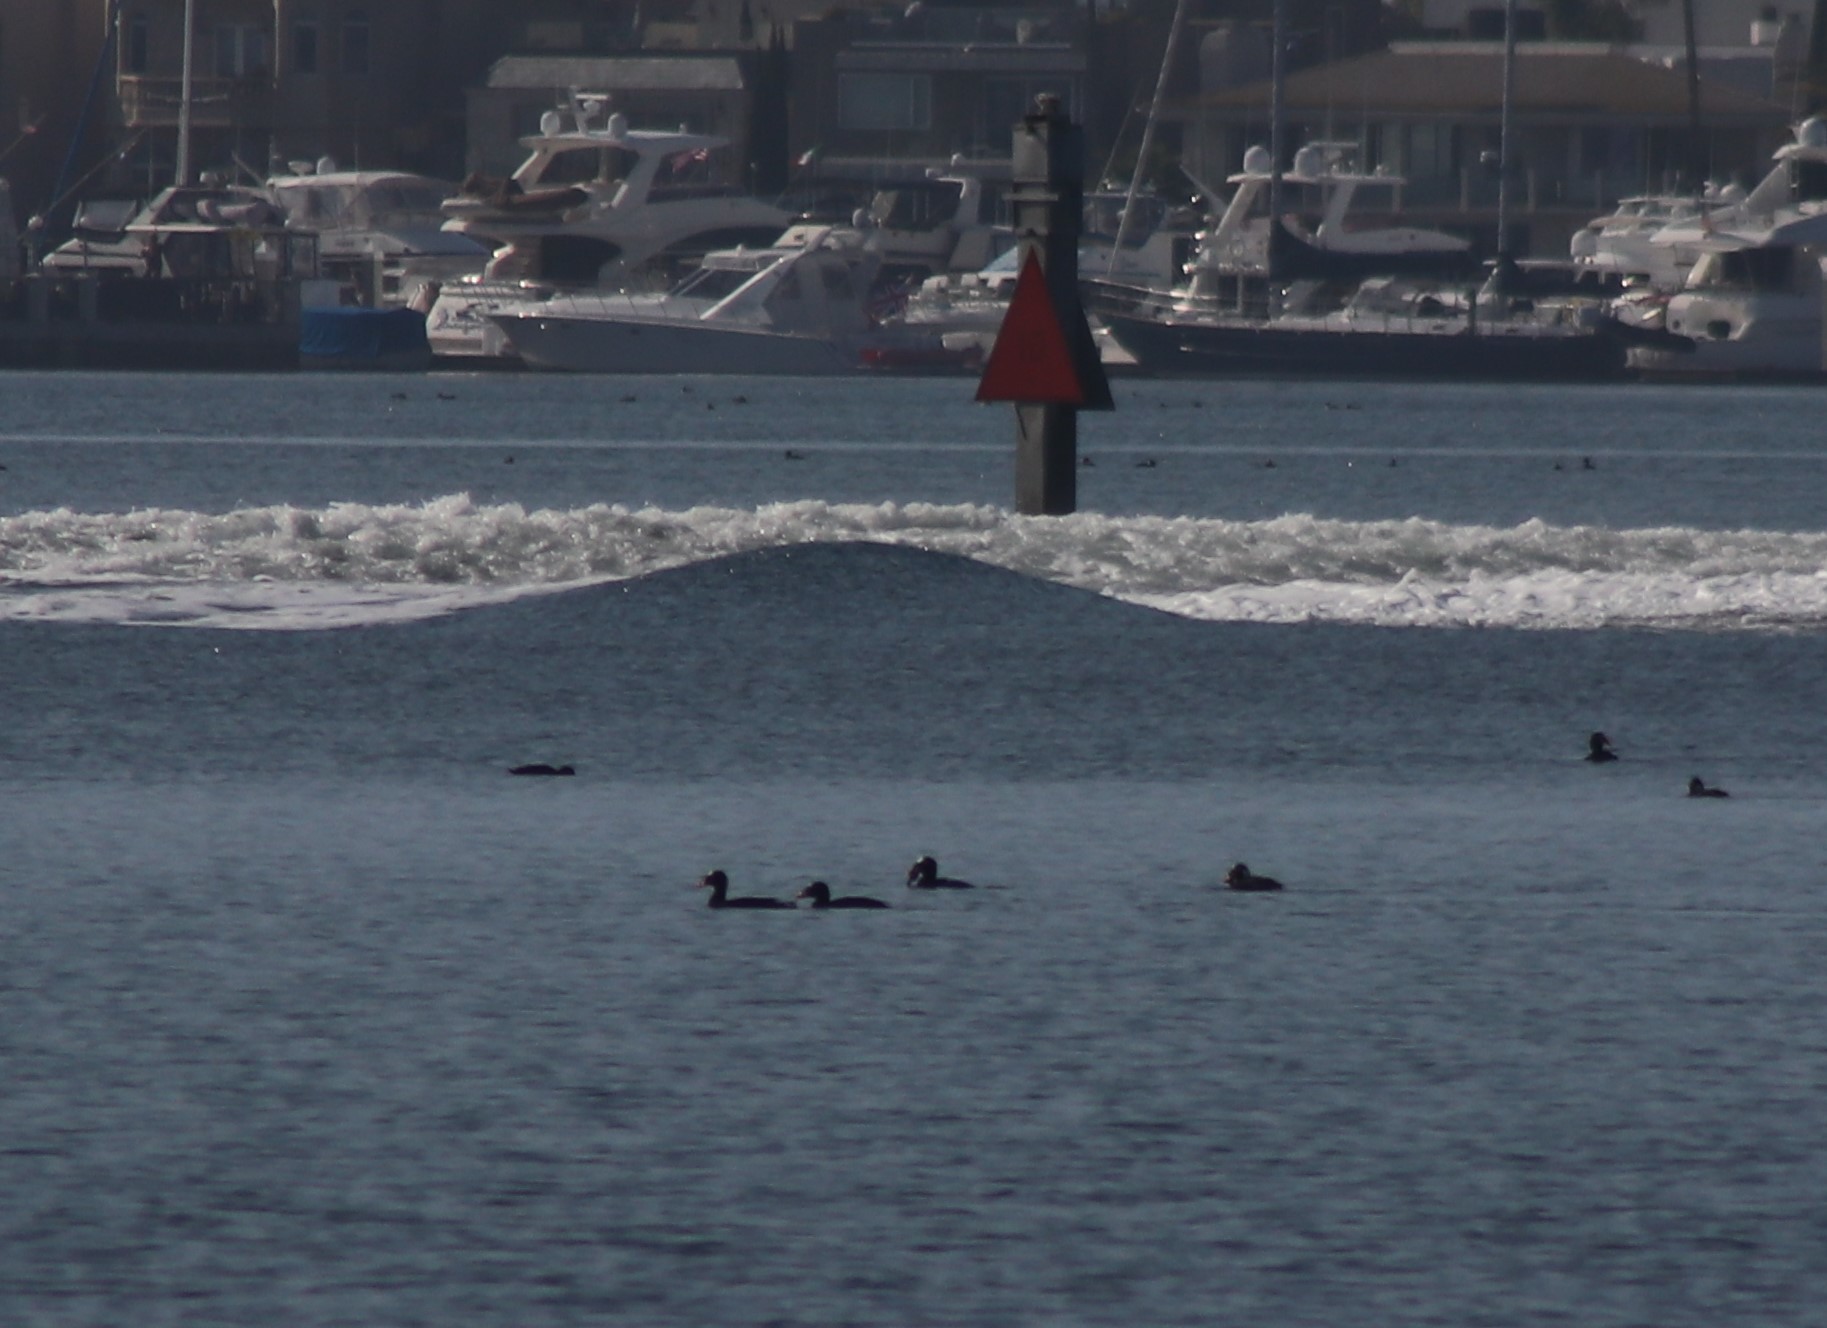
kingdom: Animalia
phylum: Chordata
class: Aves
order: Anseriformes
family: Anatidae
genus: Melanitta
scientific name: Melanitta perspicillata
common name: Surf scoter
